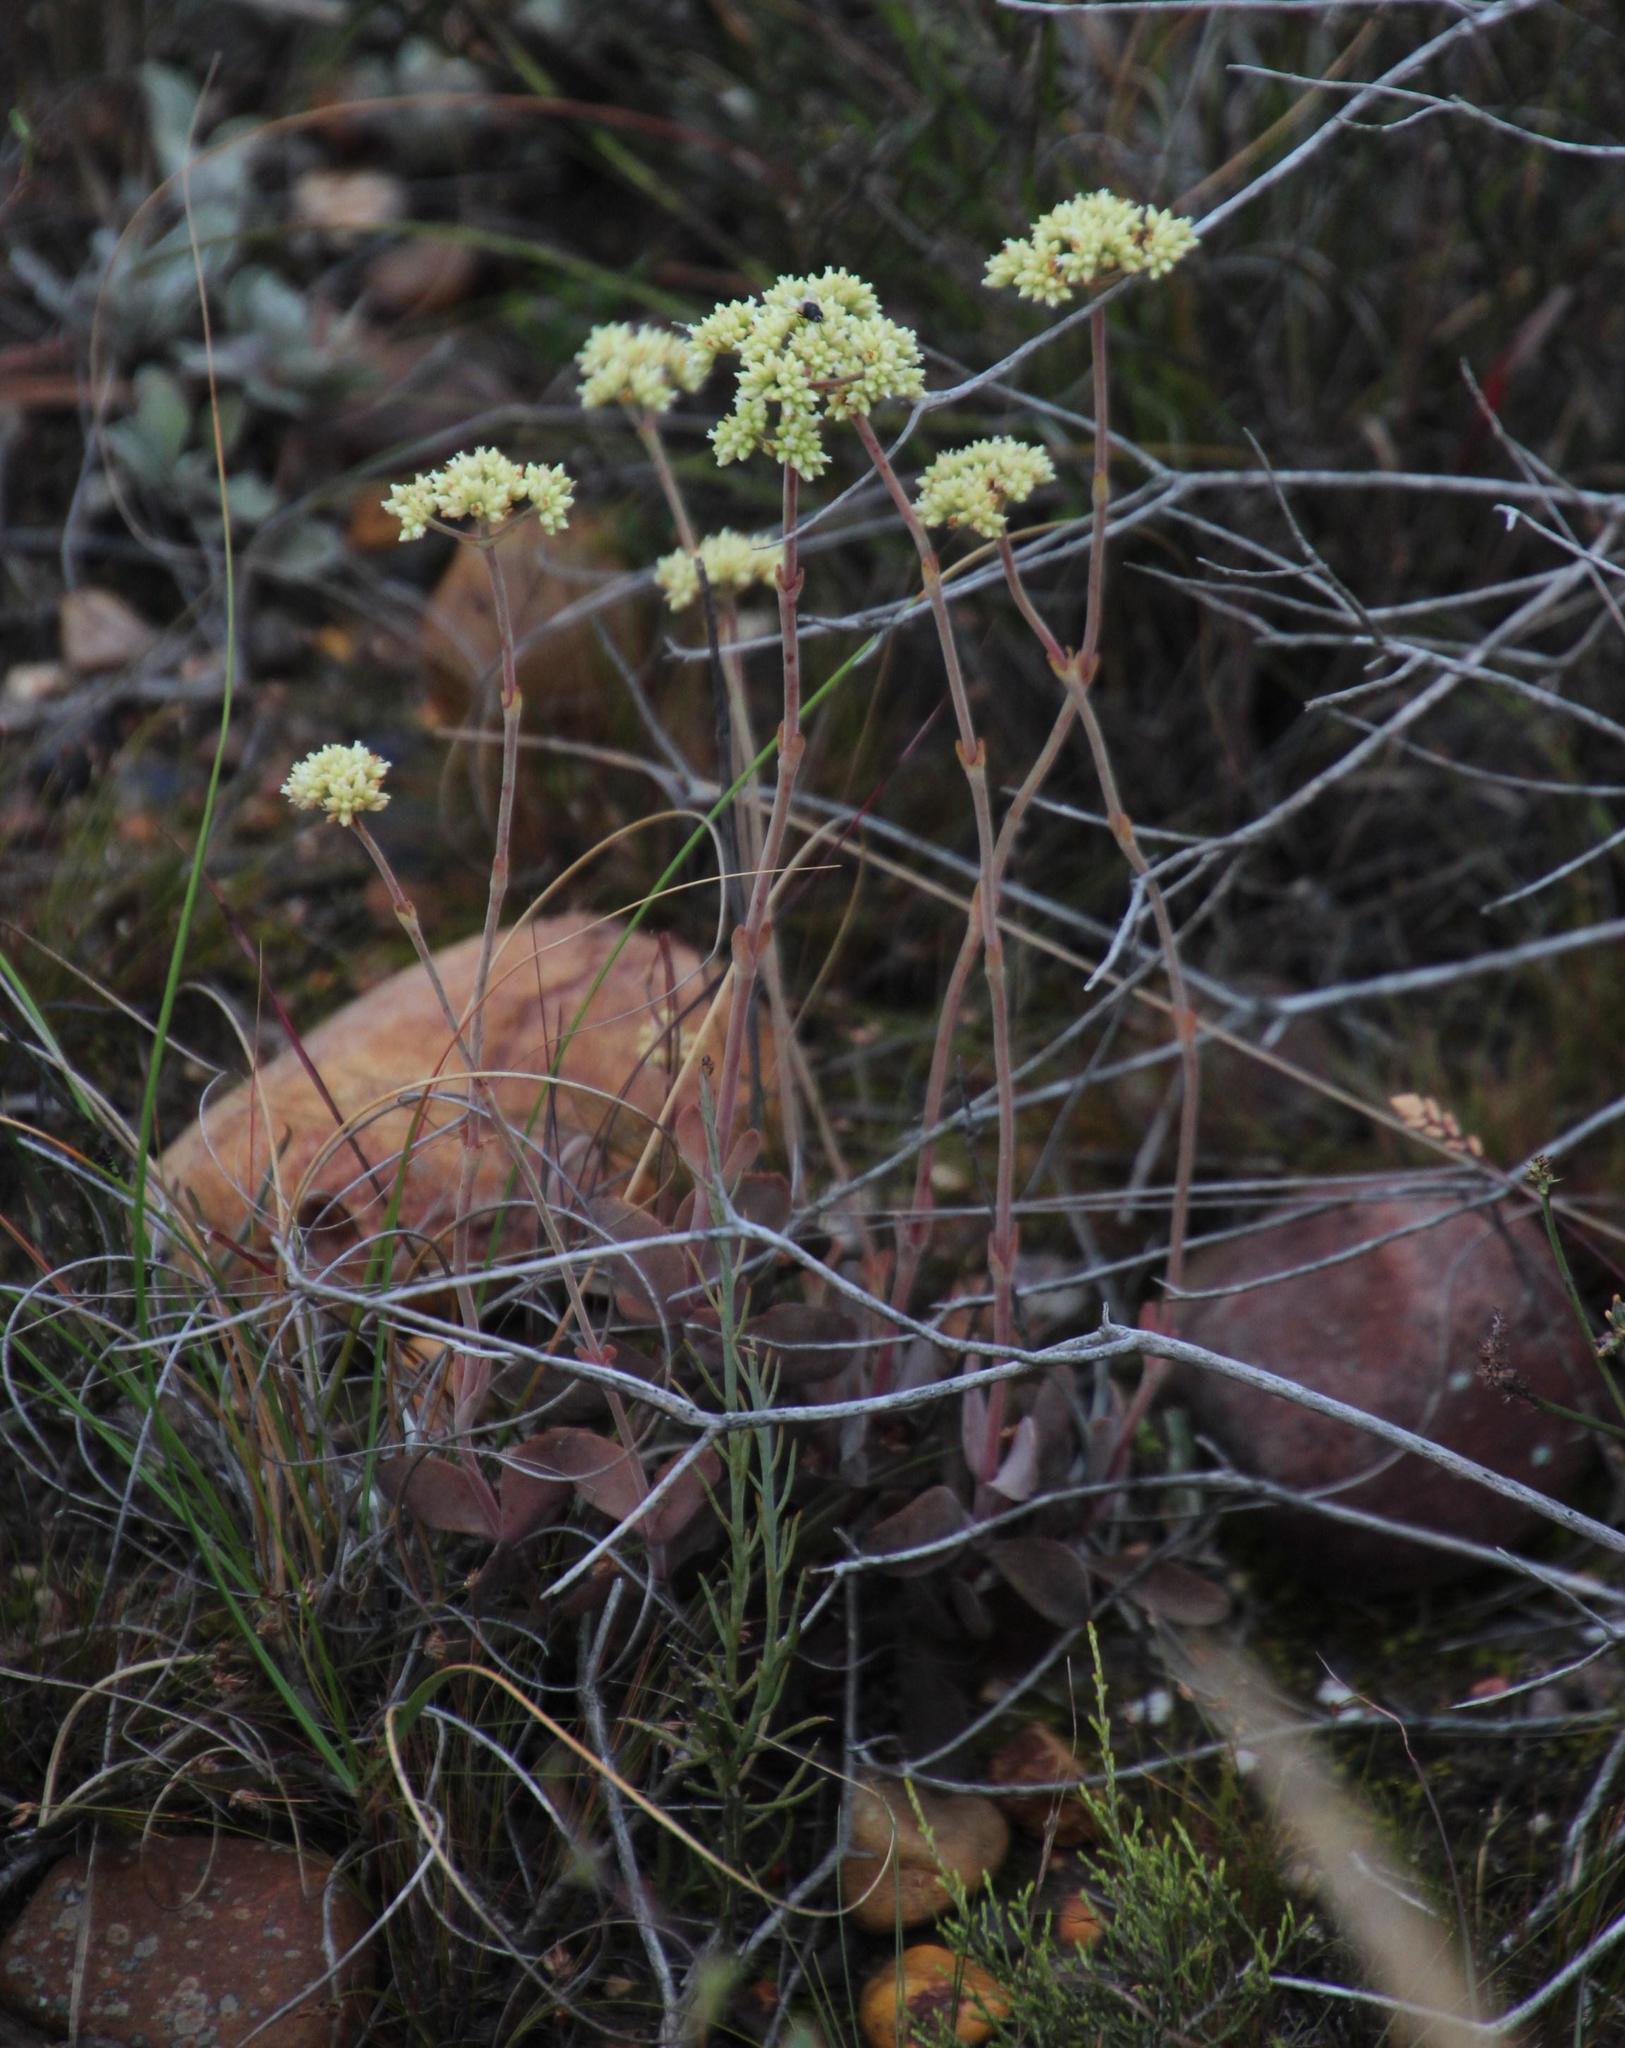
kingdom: Plantae
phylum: Tracheophyta
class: Magnoliopsida
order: Saxifragales
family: Crassulaceae
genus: Crassula
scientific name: Crassula atropurpurea
